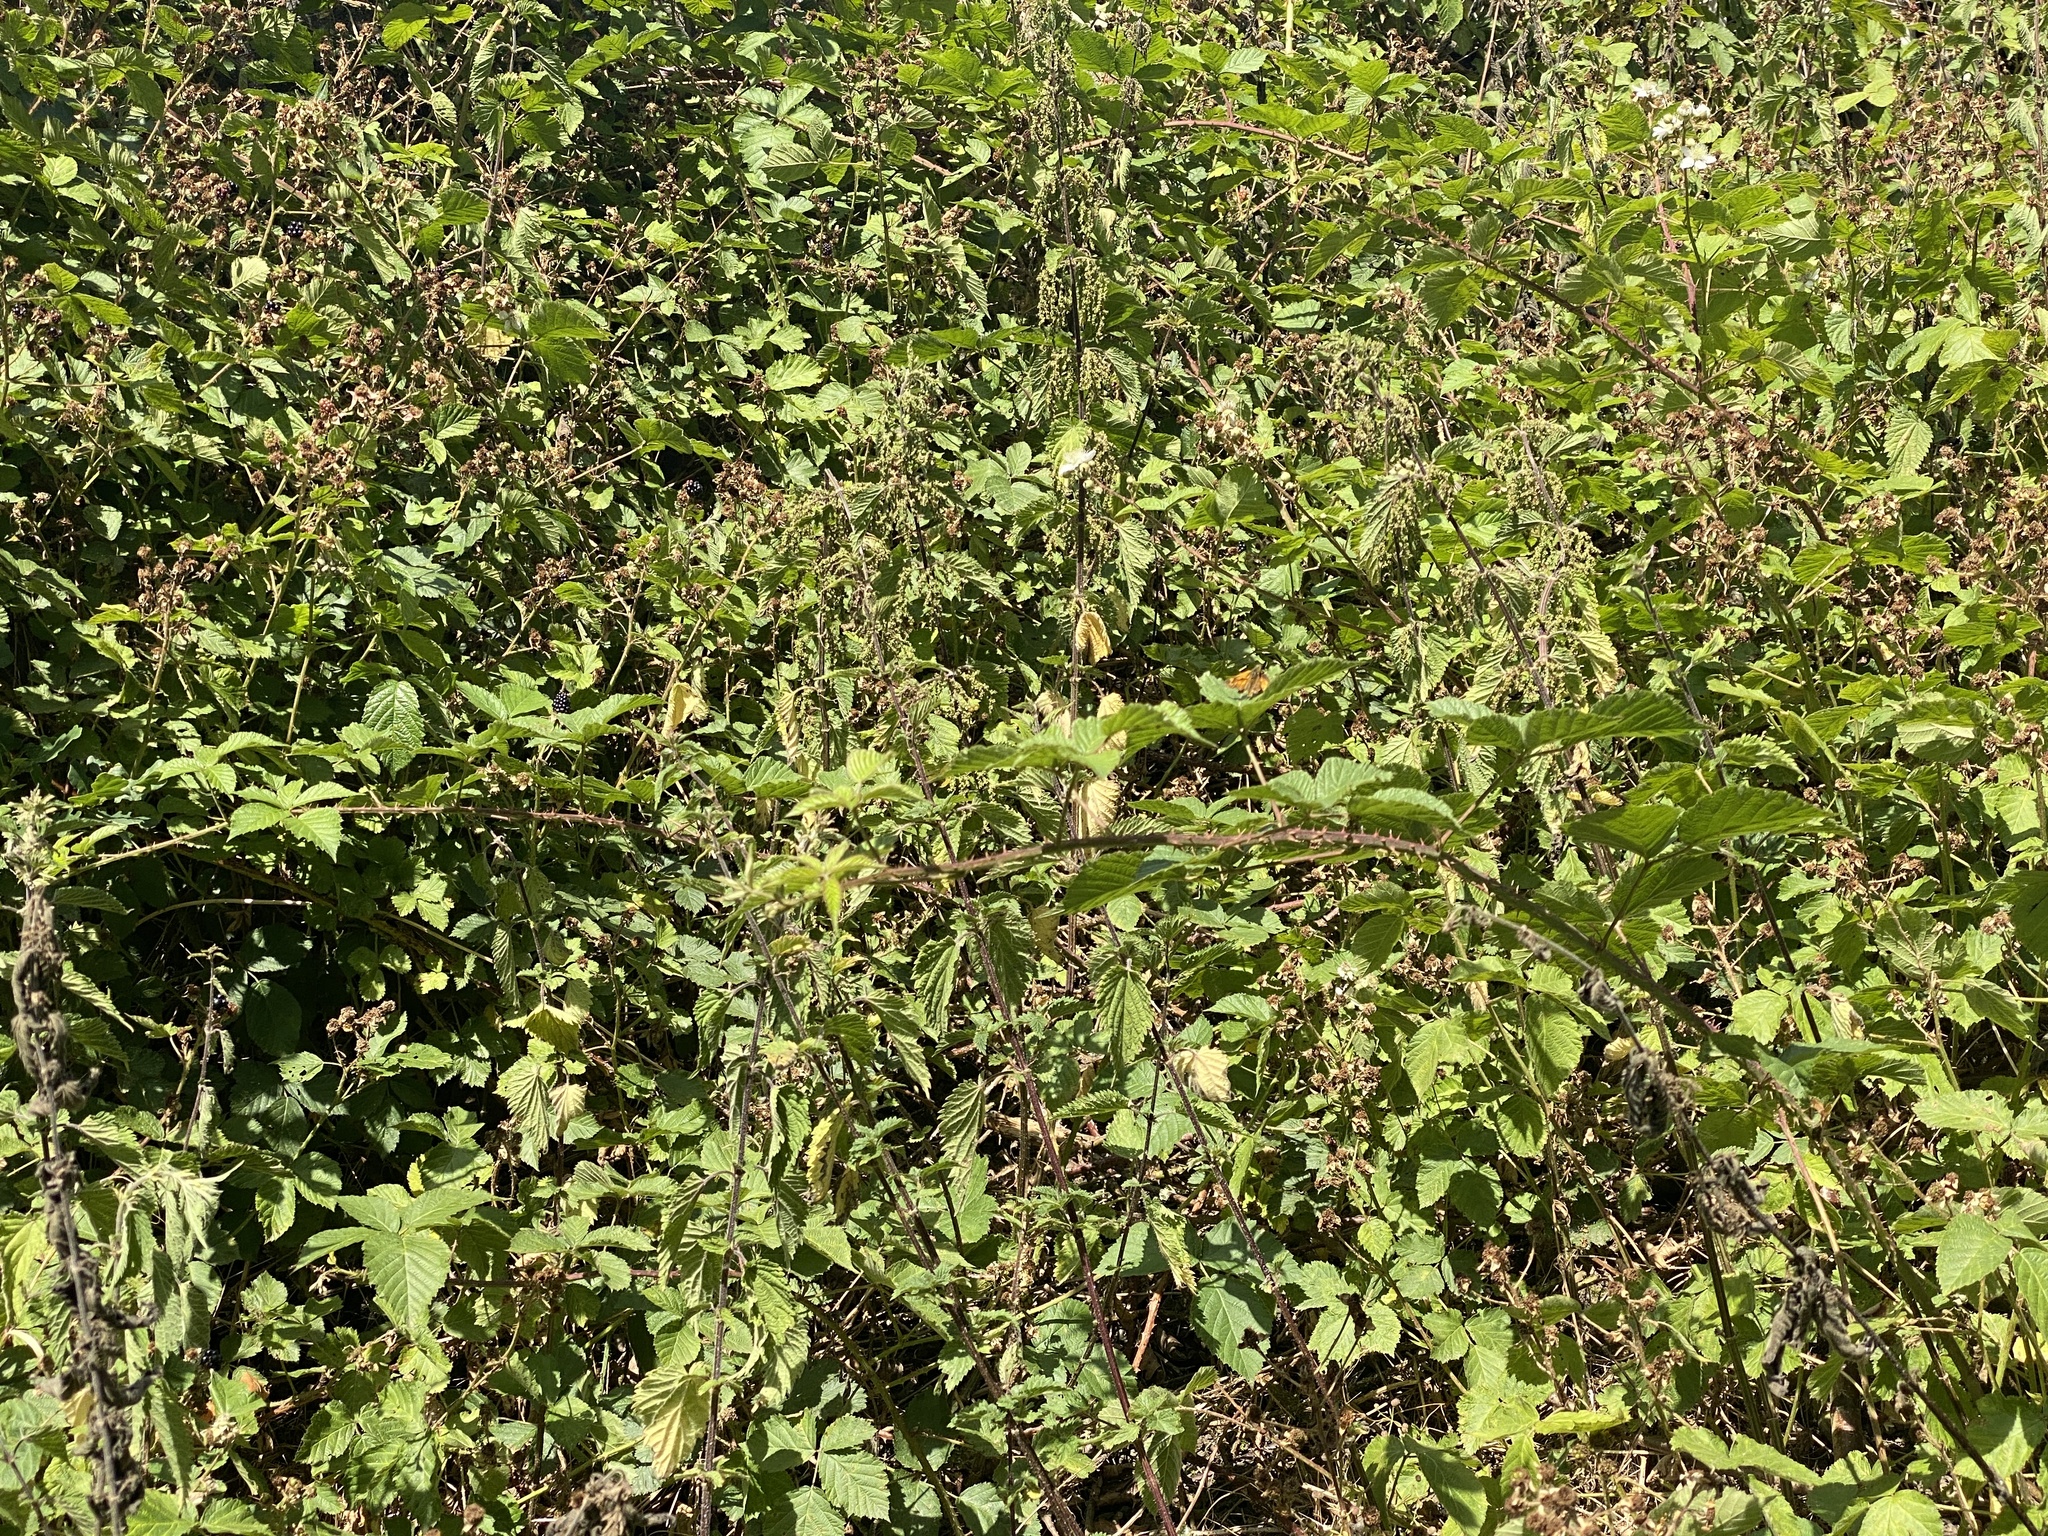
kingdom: Animalia
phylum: Arthropoda
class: Insecta
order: Lepidoptera
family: Hesperiidae
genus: Ochlodes
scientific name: Ochlodes venata
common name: Large skipper
